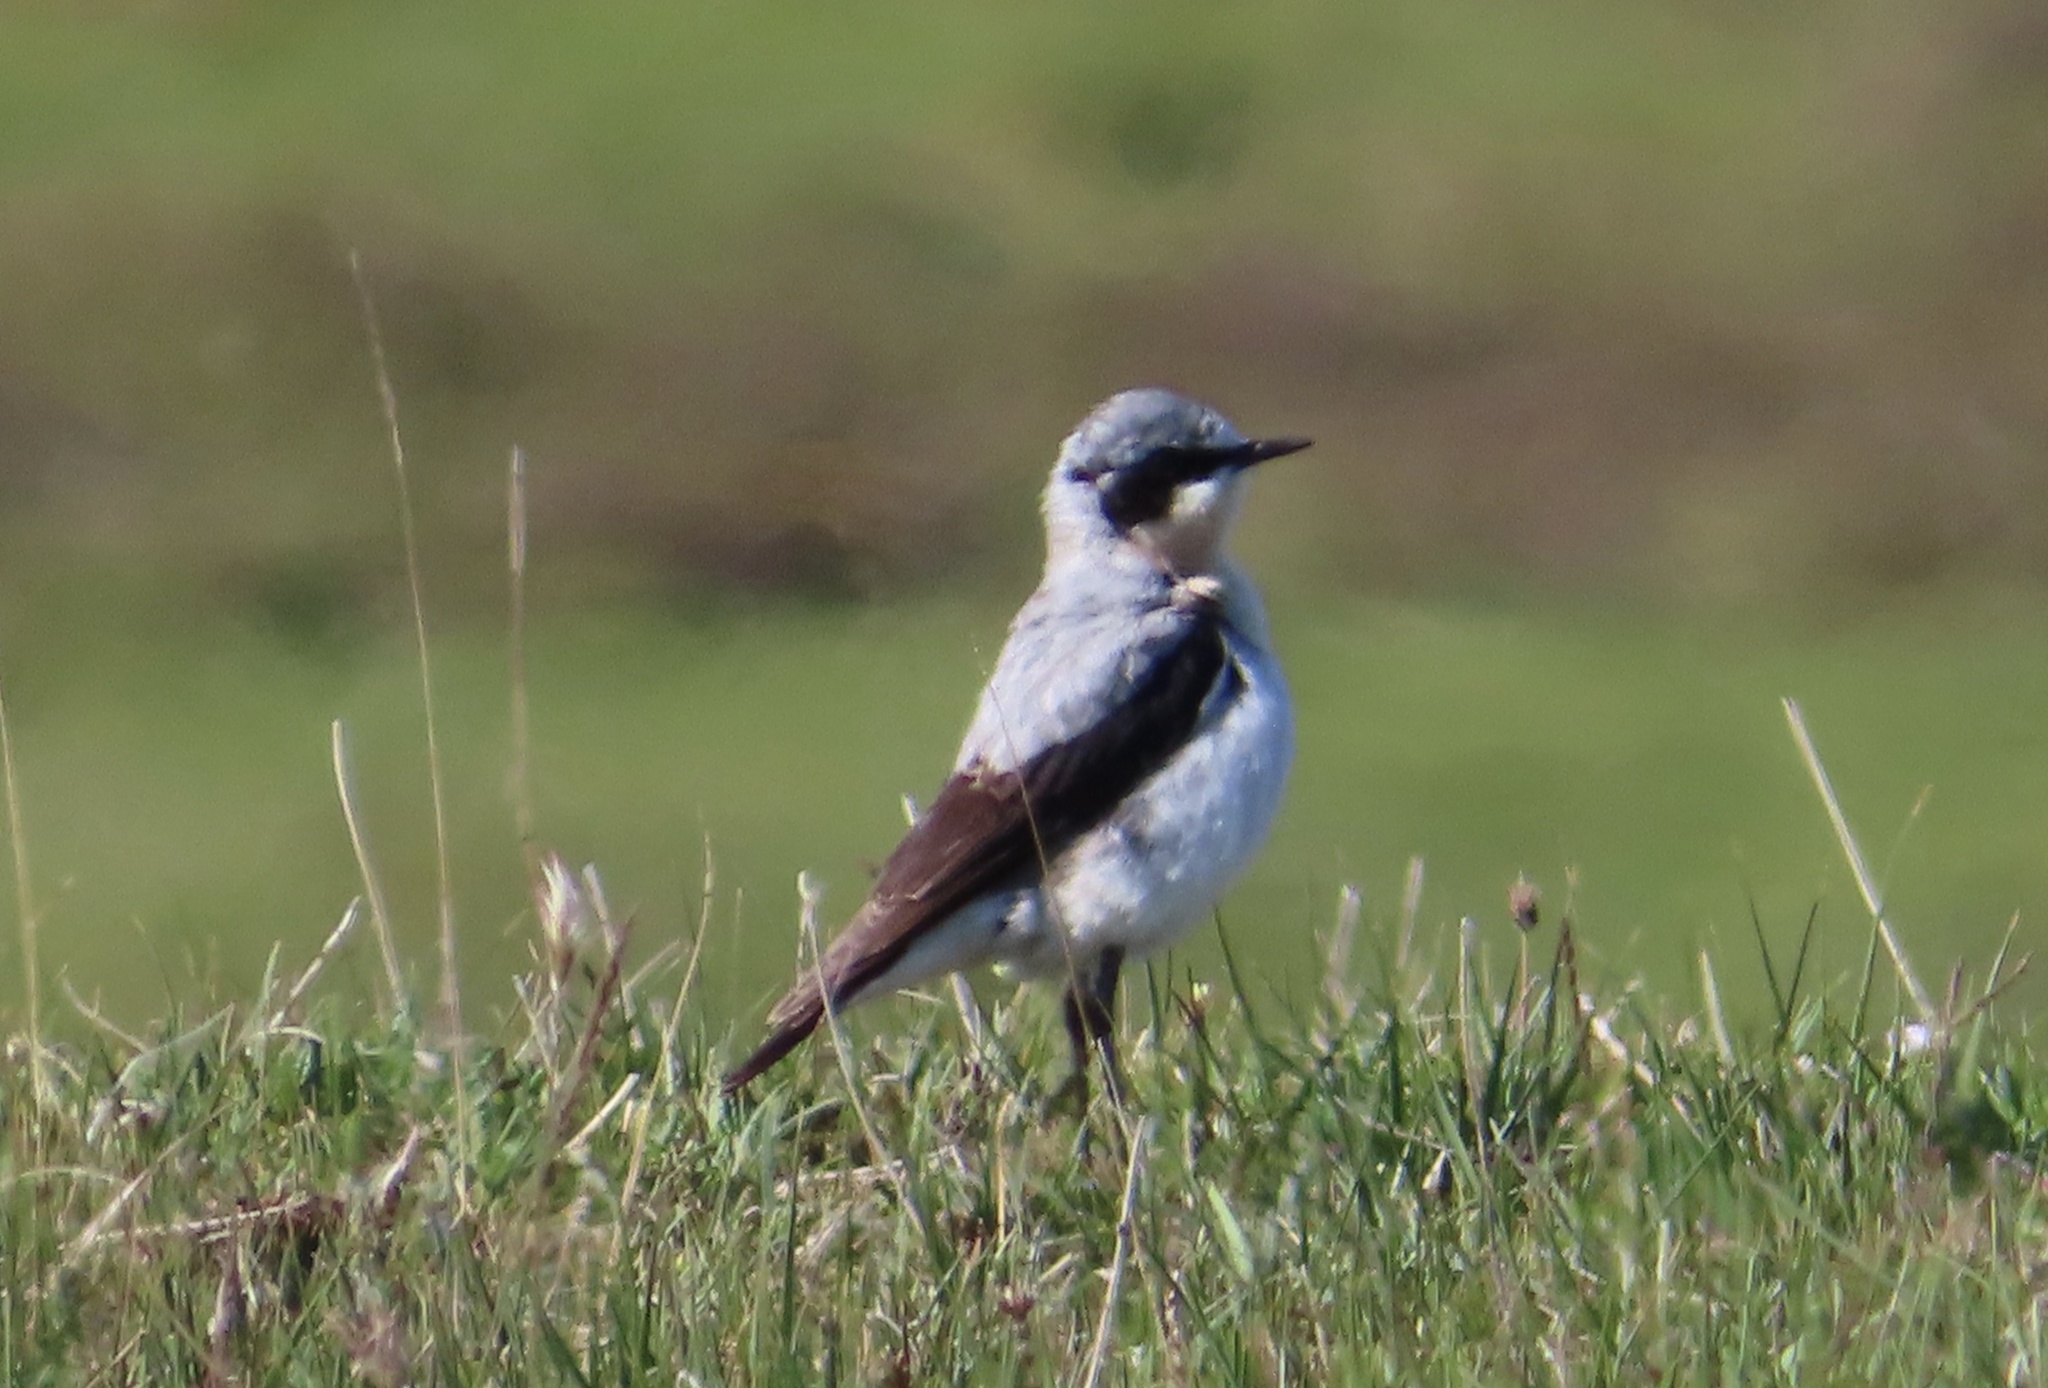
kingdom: Animalia
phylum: Chordata
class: Aves
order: Passeriformes
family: Muscicapidae
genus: Oenanthe
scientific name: Oenanthe oenanthe
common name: Northern wheatear
